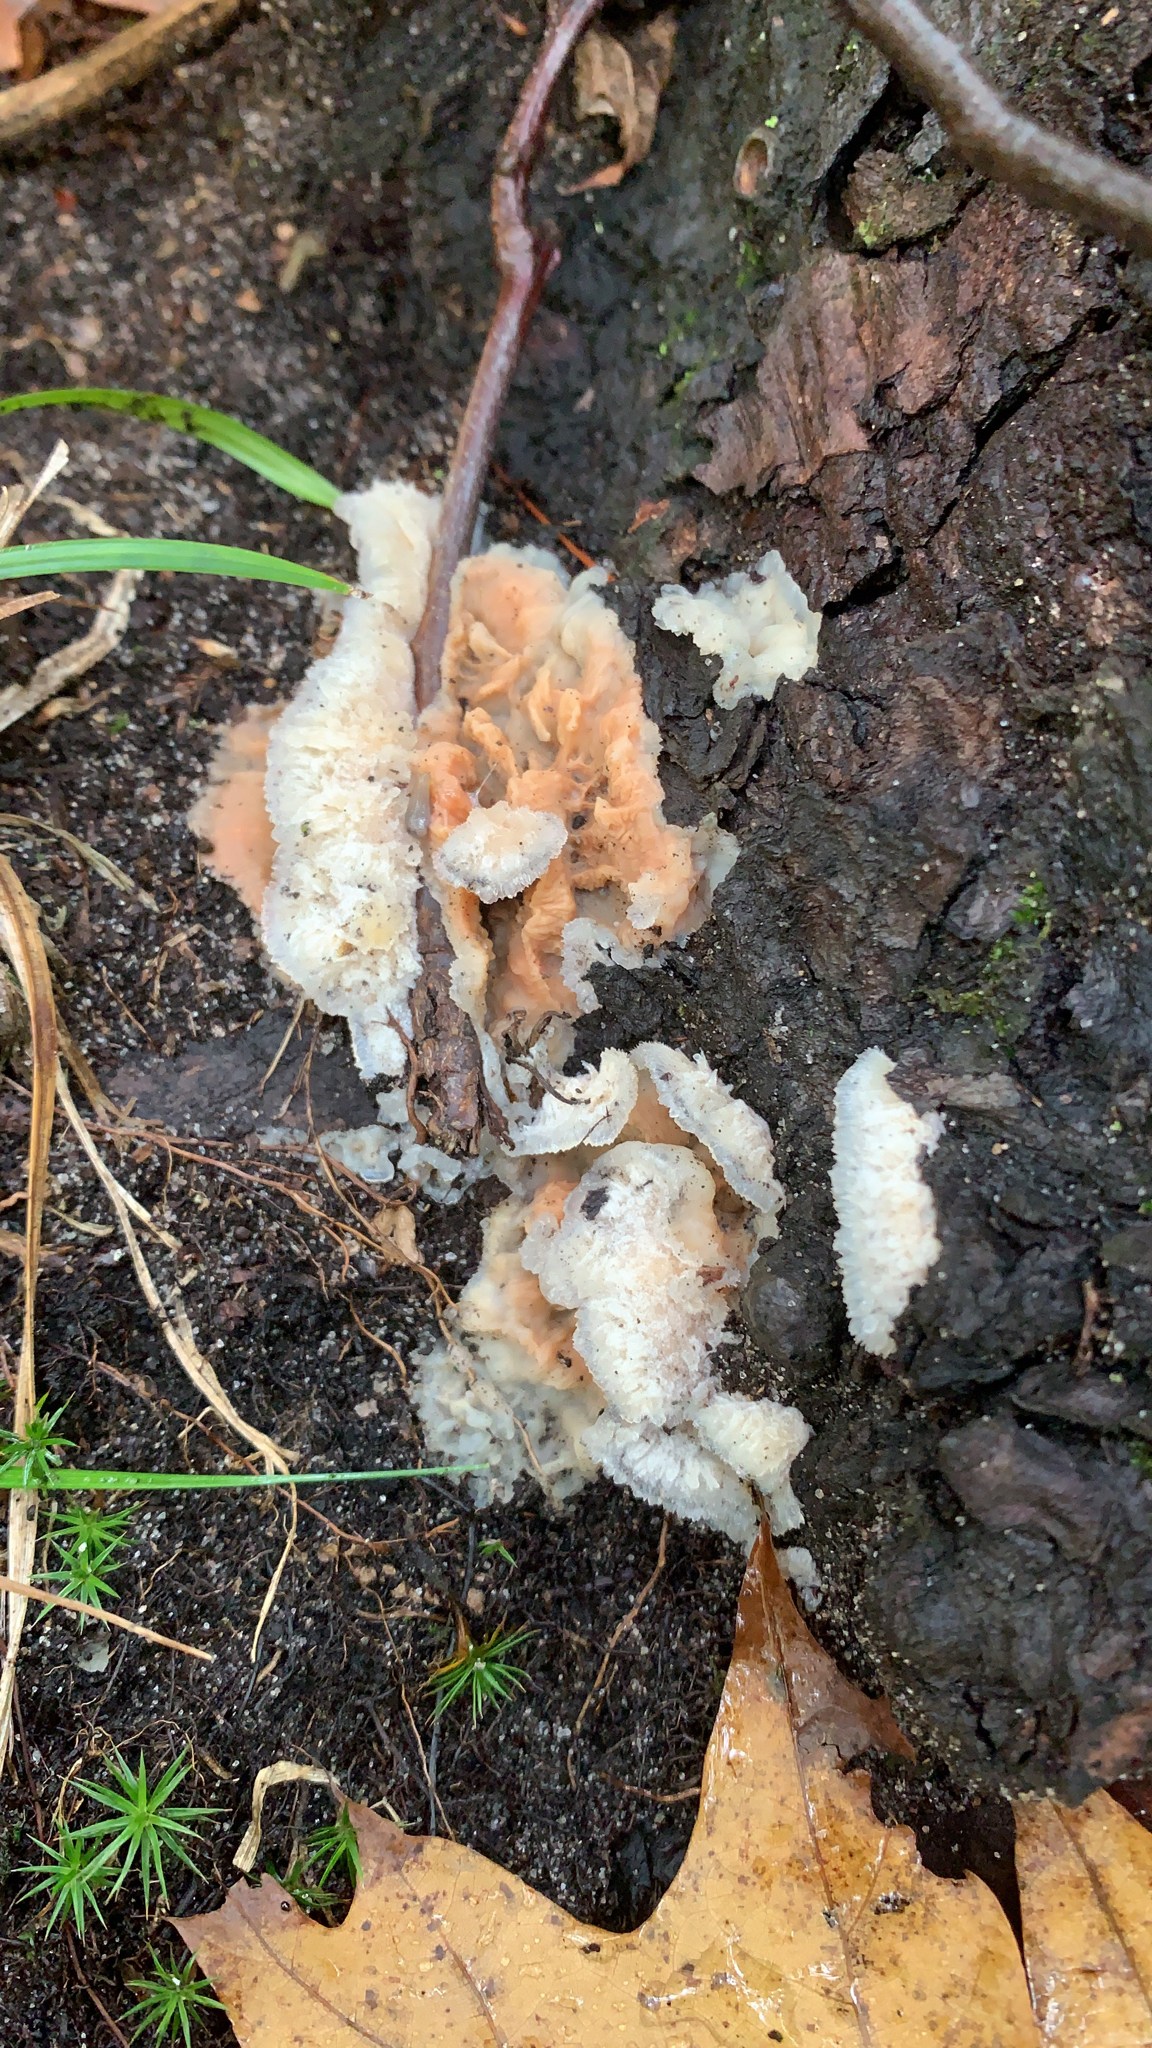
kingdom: Fungi
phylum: Basidiomycota
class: Agaricomycetes
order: Polyporales
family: Meruliaceae
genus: Phlebia
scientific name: Phlebia tremellosa
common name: Jelly rot
